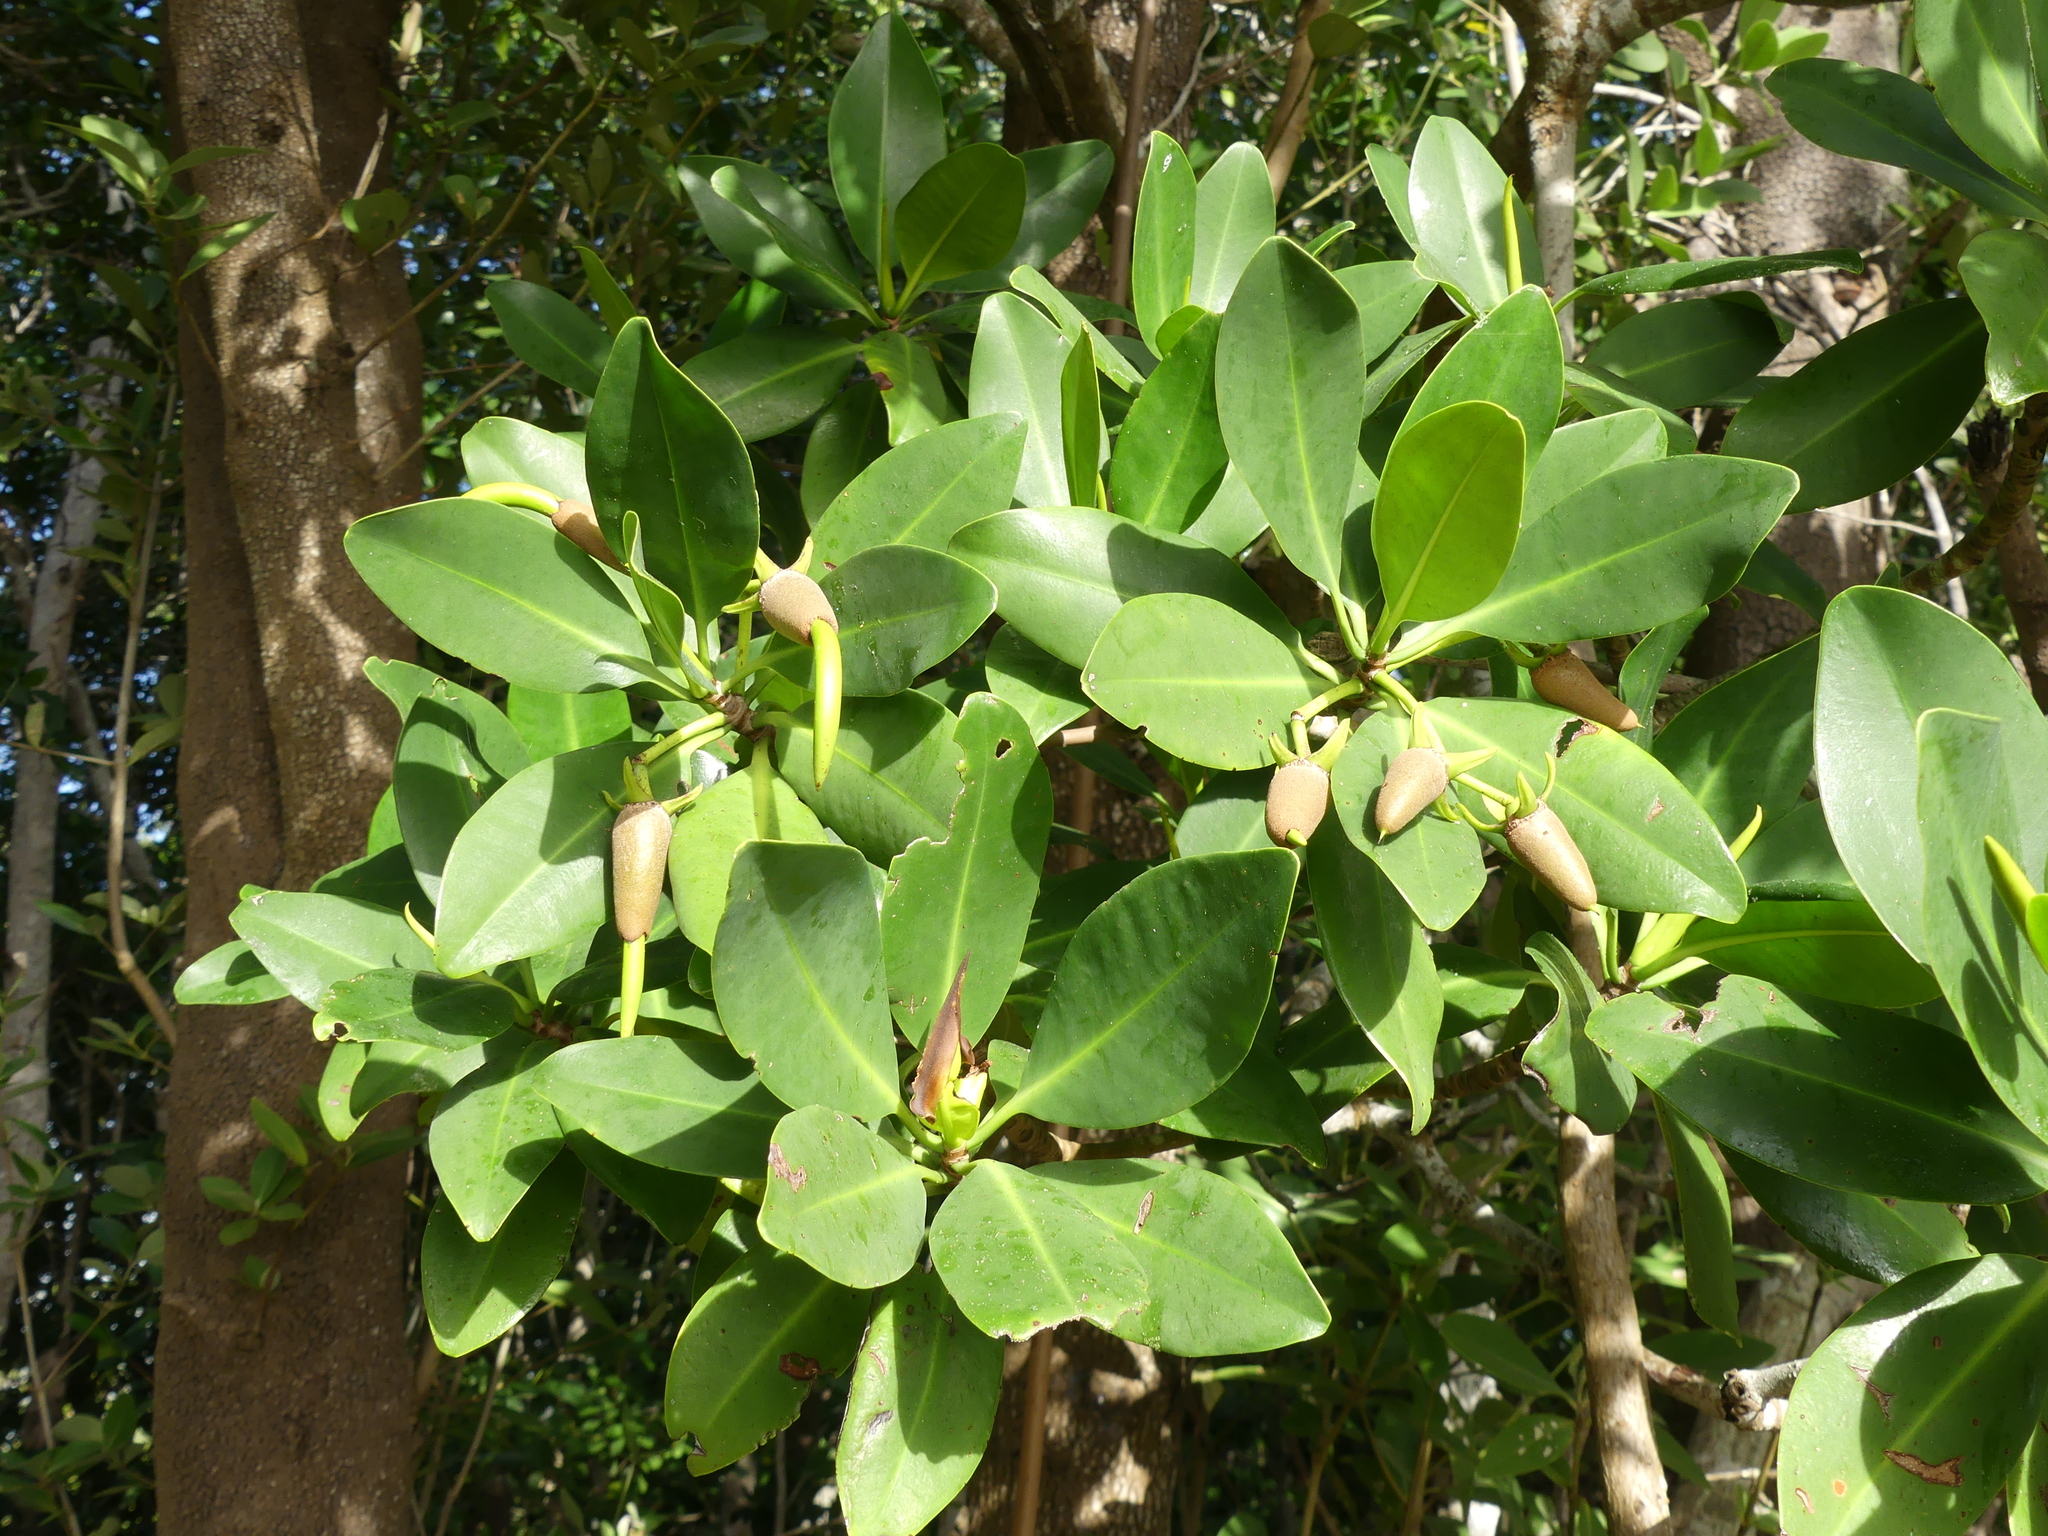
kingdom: Plantae
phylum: Tracheophyta
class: Magnoliopsida
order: Malpighiales
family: Rhizophoraceae
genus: Rhizophora
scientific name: Rhizophora mangle
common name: Red mangrove
